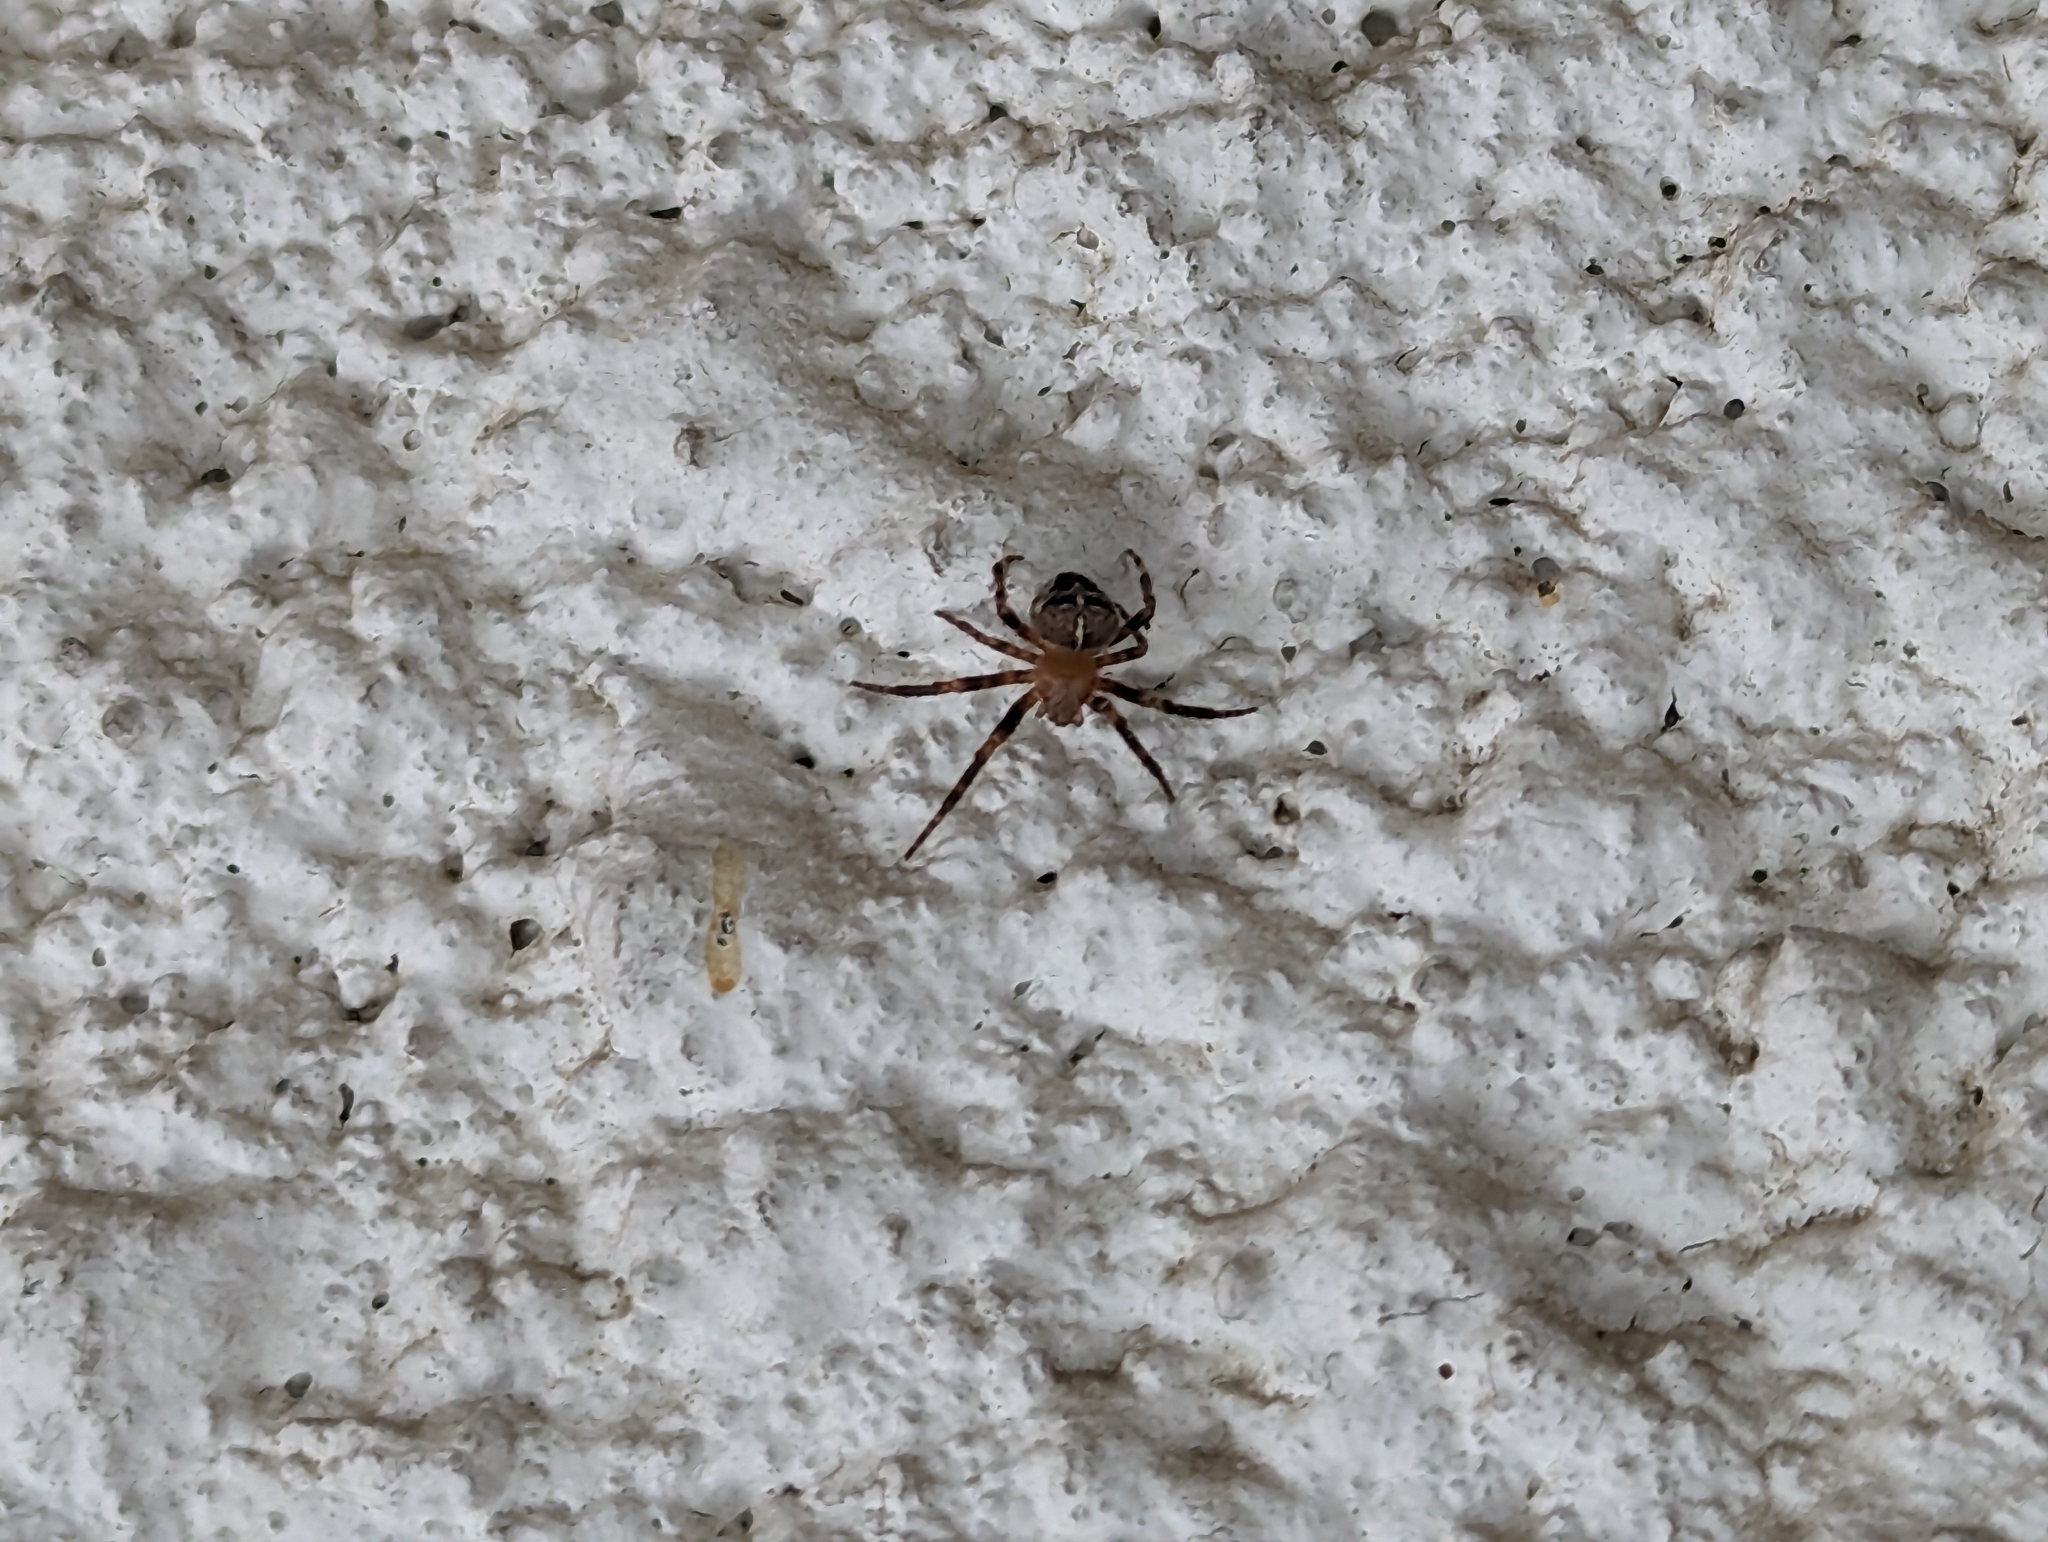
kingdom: Animalia
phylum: Arthropoda
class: Arachnida
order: Araneae
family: Araneidae
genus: Araneus
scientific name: Araneus diadematus
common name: Cross orbweaver
